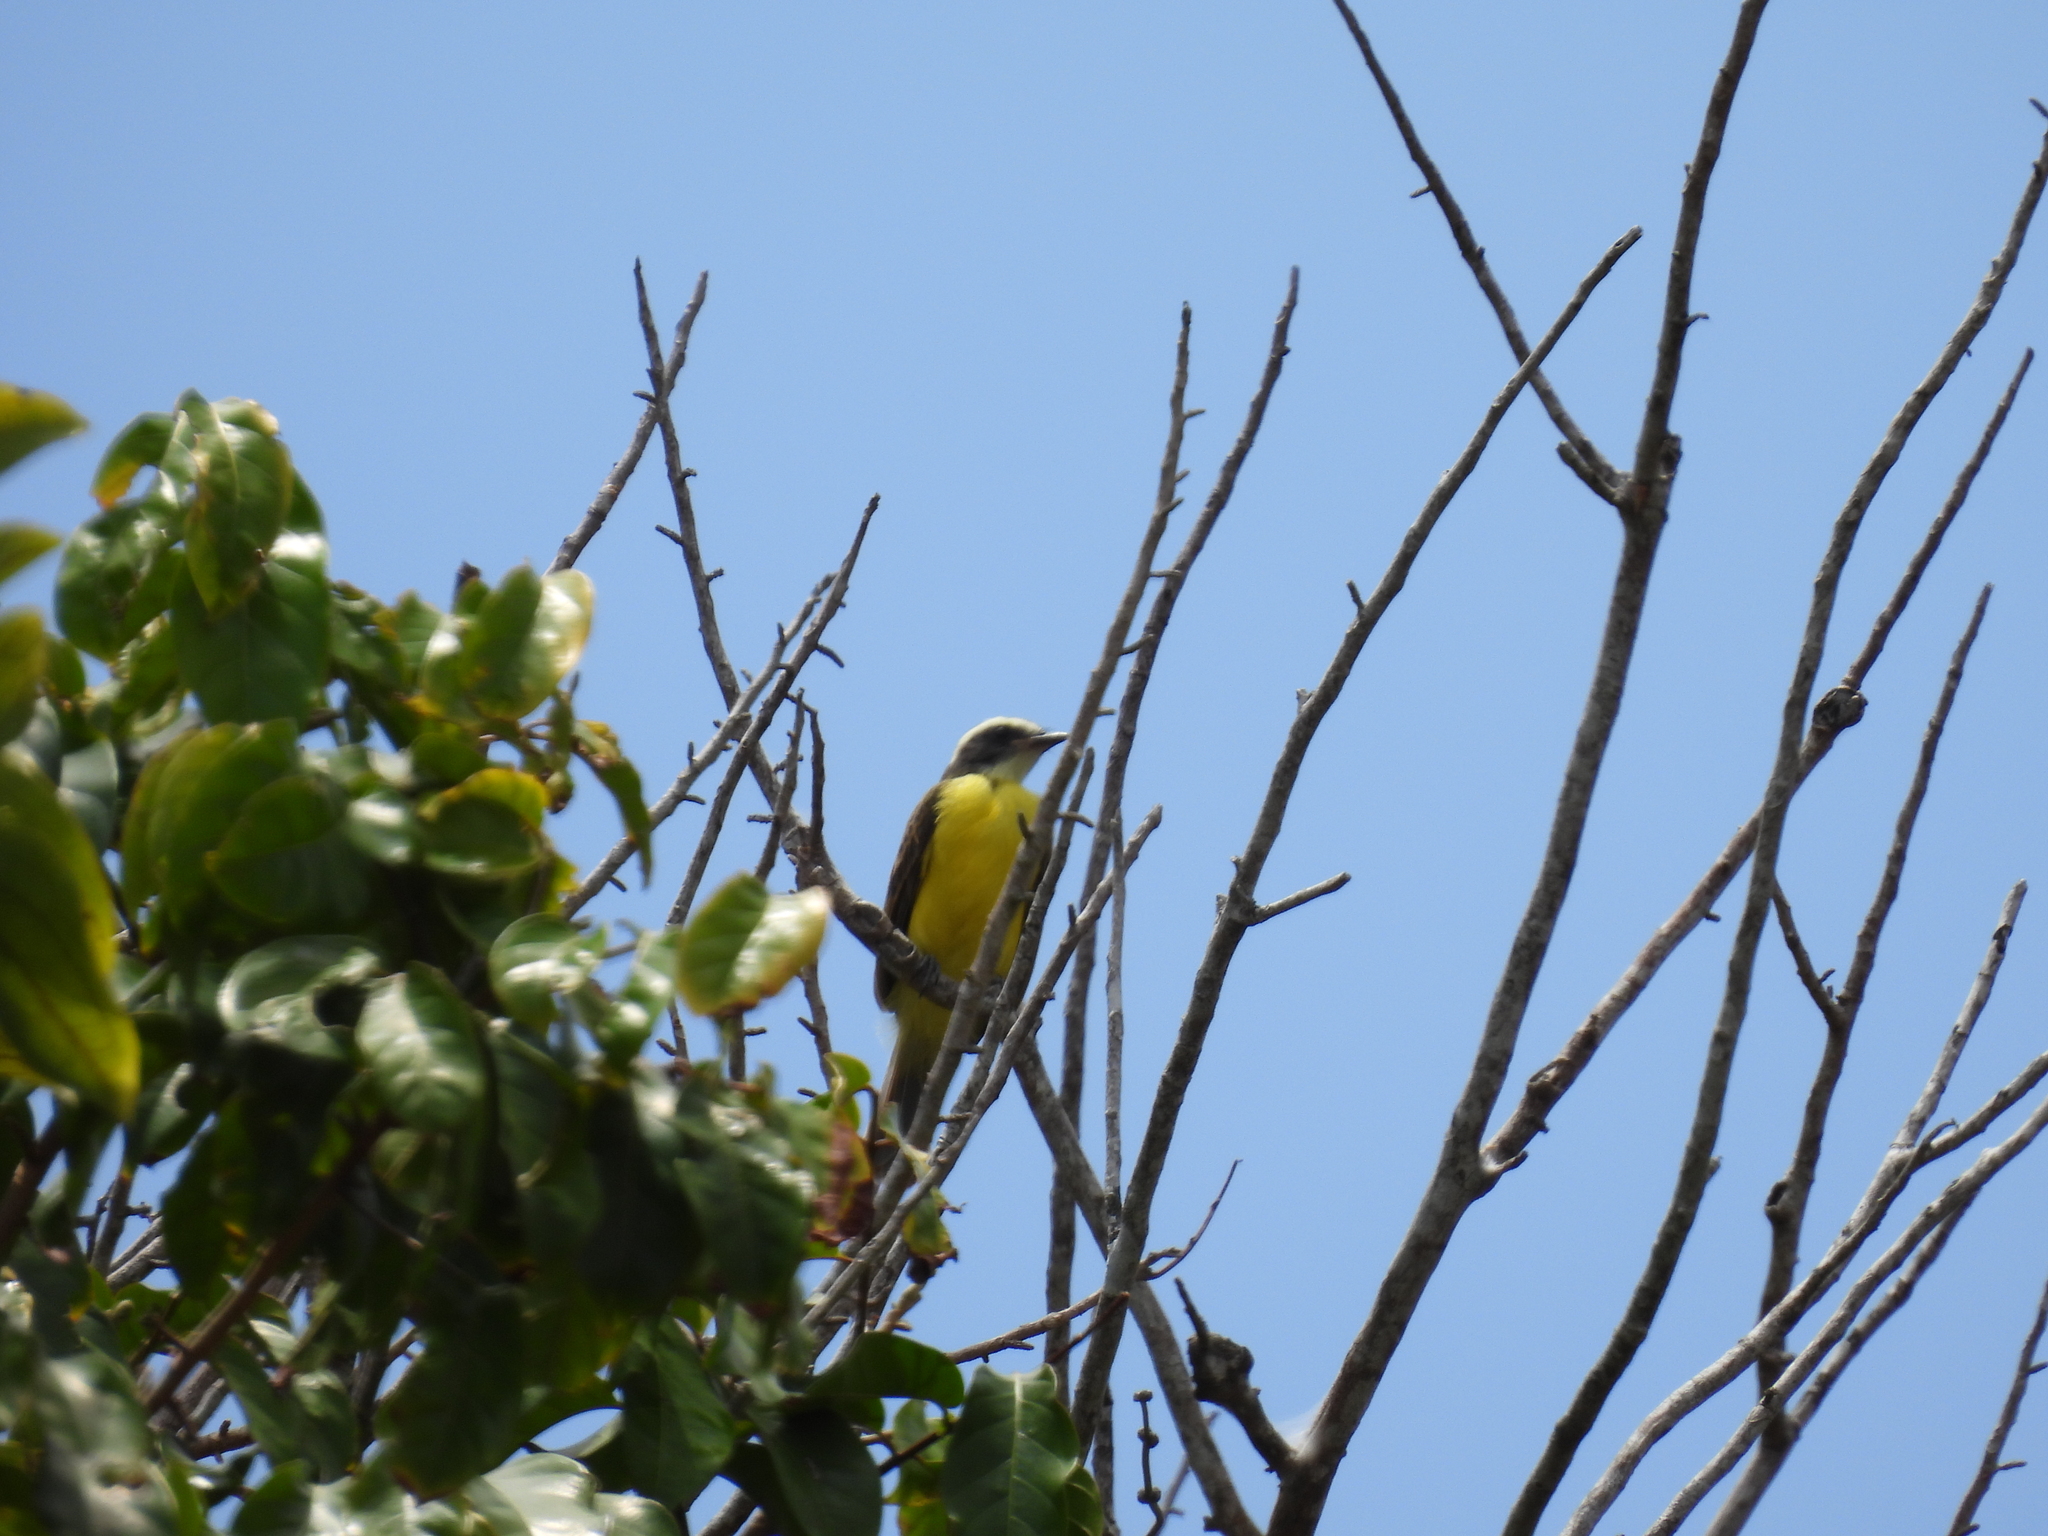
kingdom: Animalia
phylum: Chordata
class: Aves
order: Passeriformes
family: Tyrannidae
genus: Myiozetetes
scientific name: Myiozetetes similis
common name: Social flycatcher
